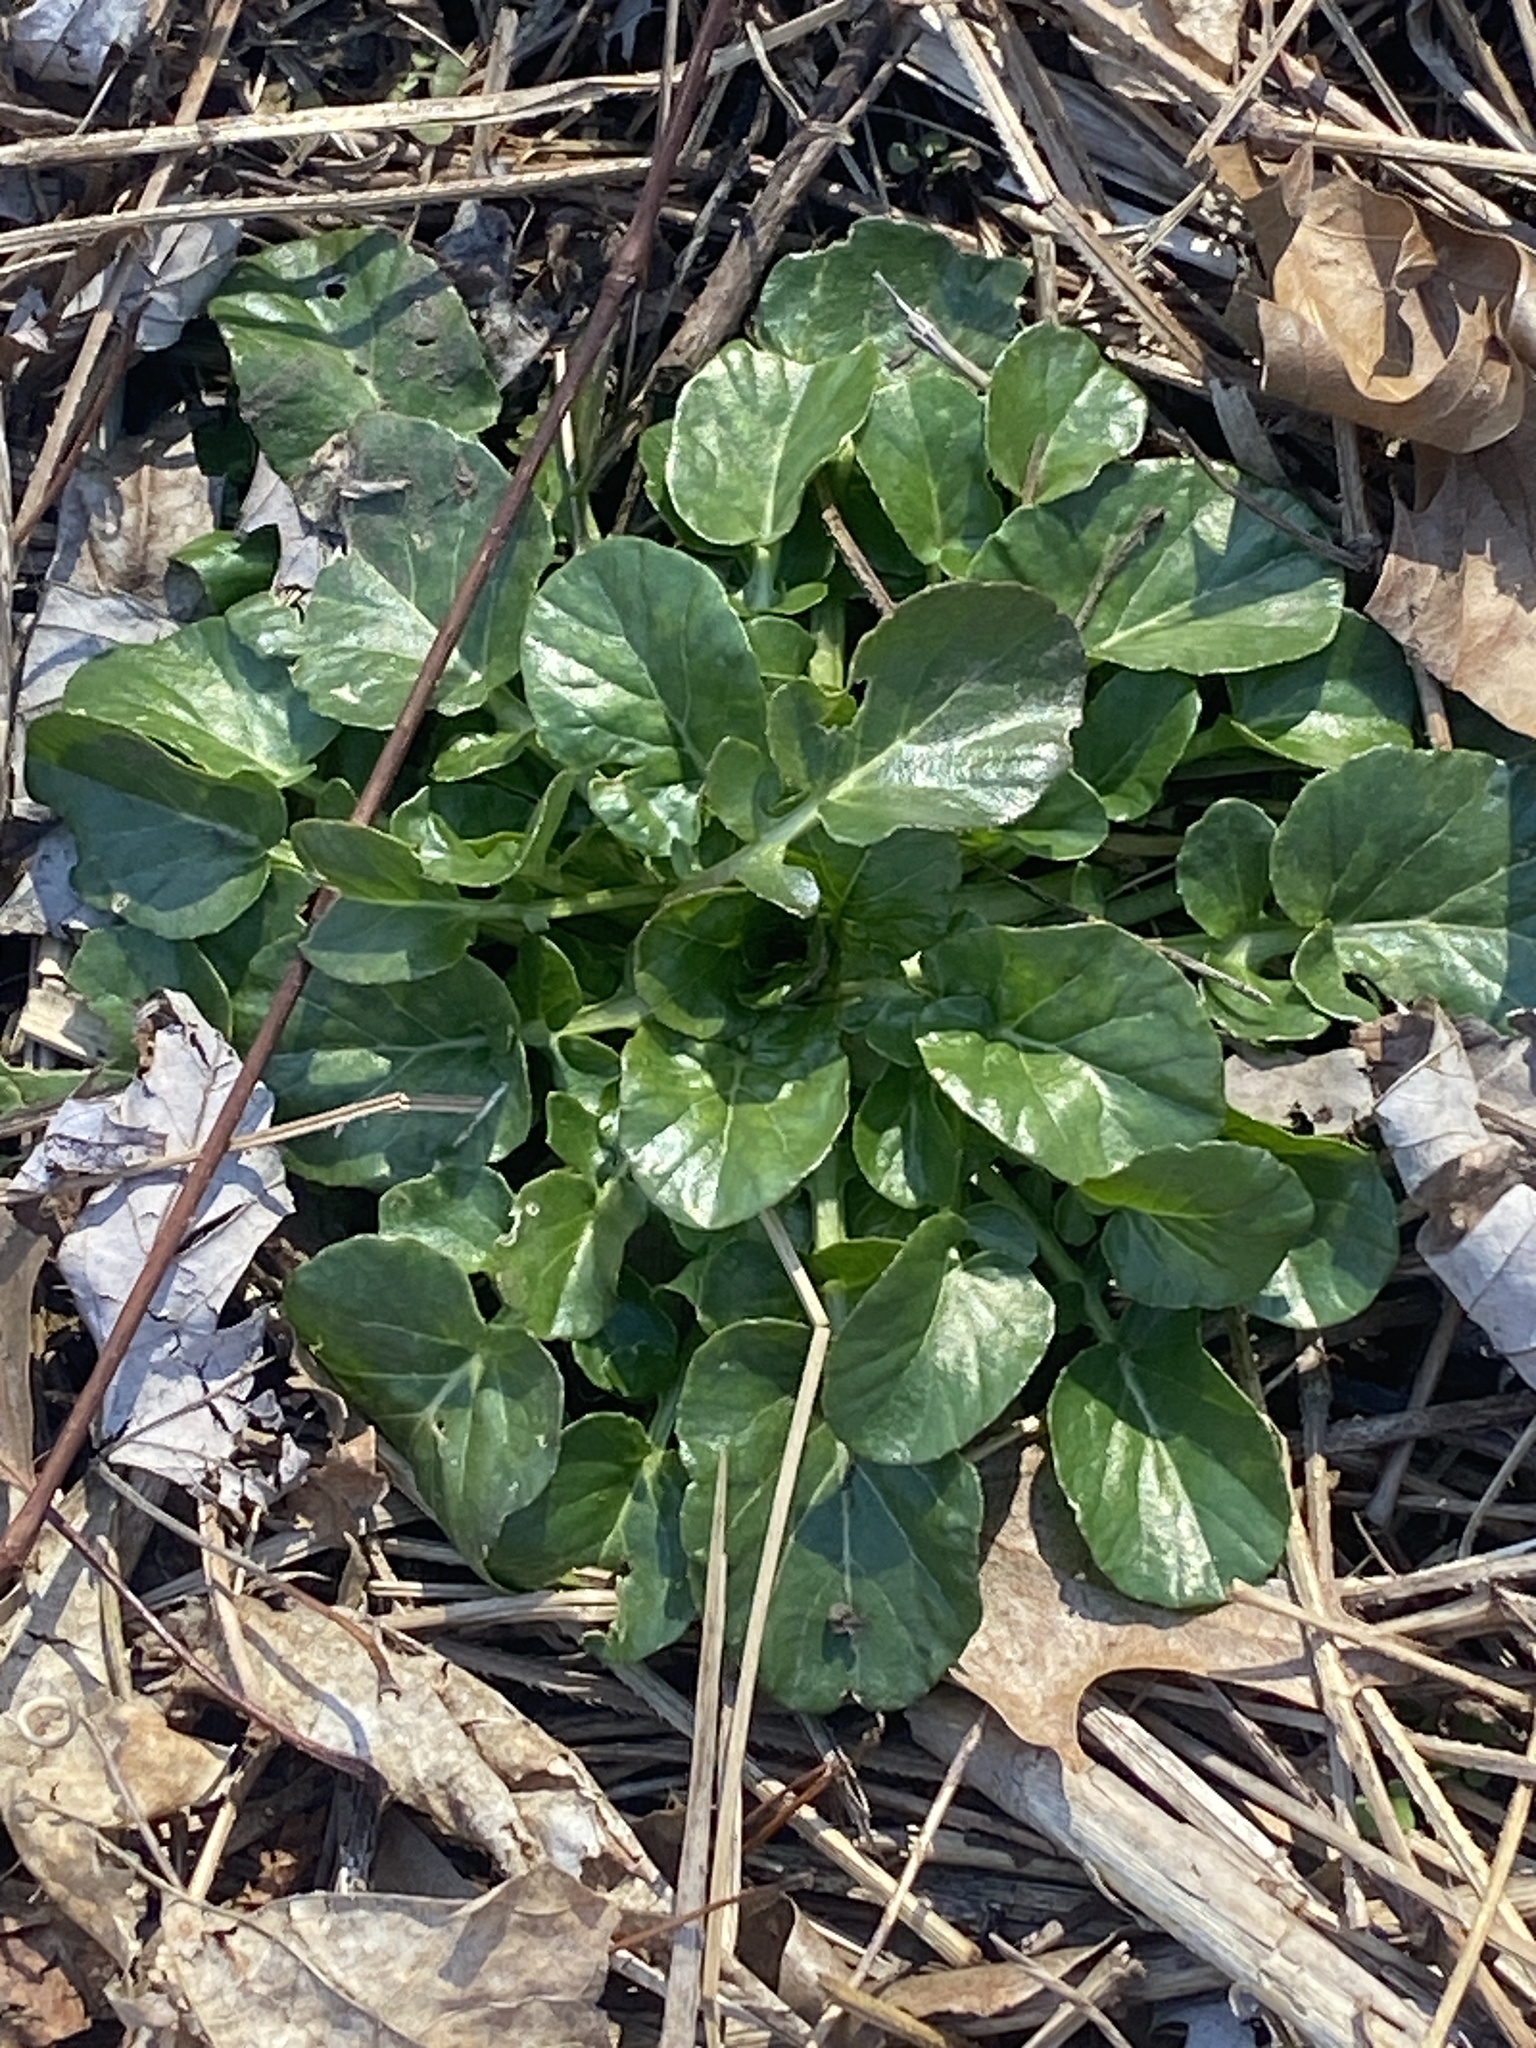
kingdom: Plantae
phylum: Tracheophyta
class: Magnoliopsida
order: Brassicales
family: Brassicaceae
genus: Barbarea
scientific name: Barbarea vulgaris
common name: Cressy-greens
